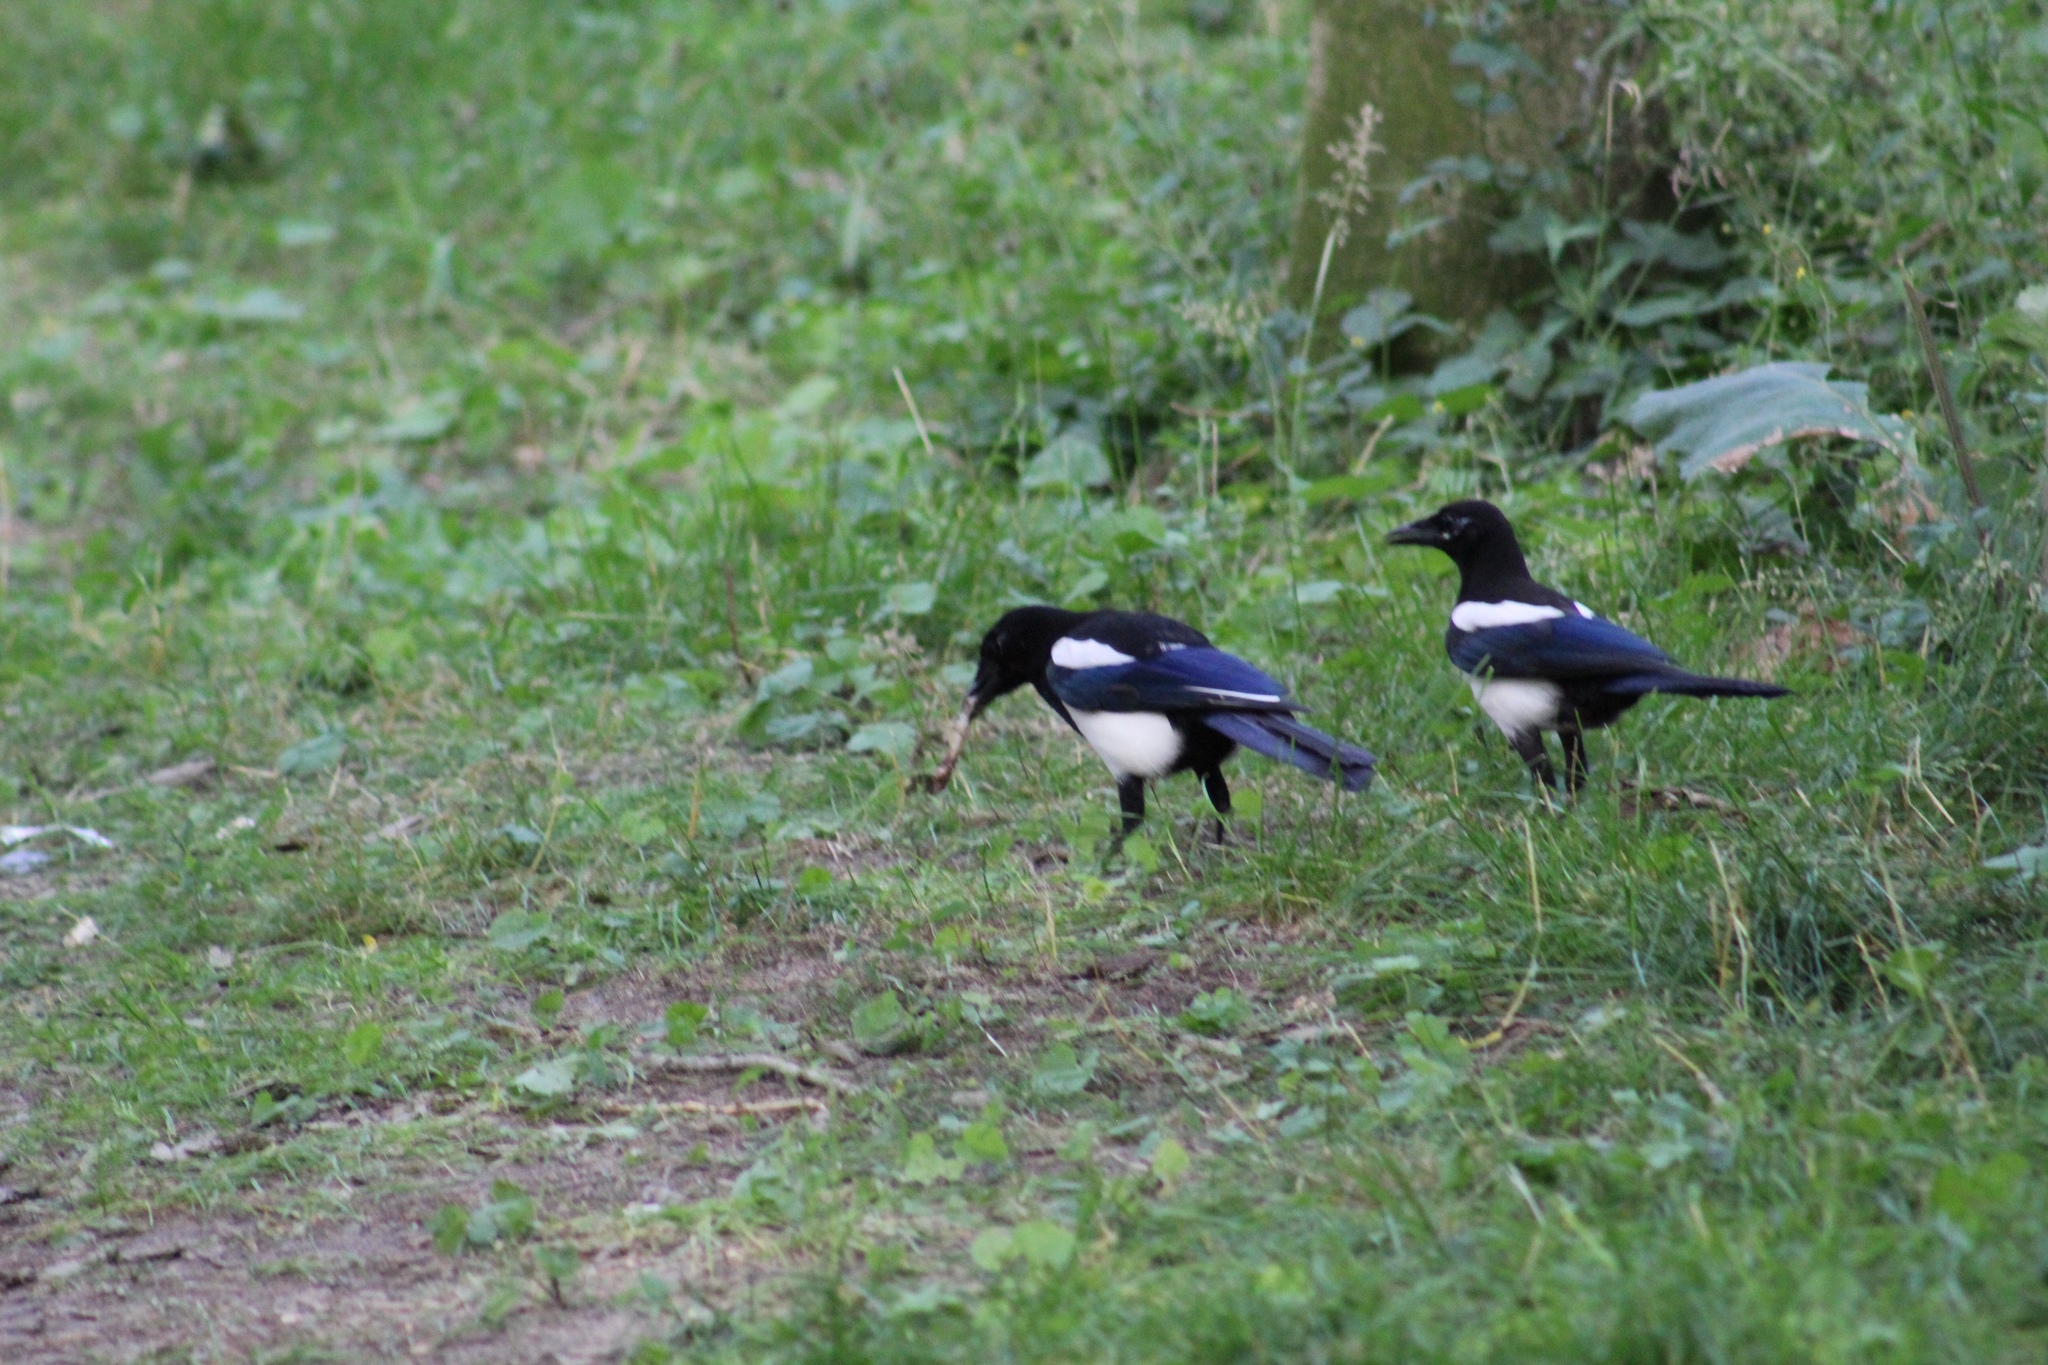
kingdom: Animalia
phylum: Chordata
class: Aves
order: Passeriformes
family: Corvidae
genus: Pica
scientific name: Pica pica
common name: Eurasian magpie
